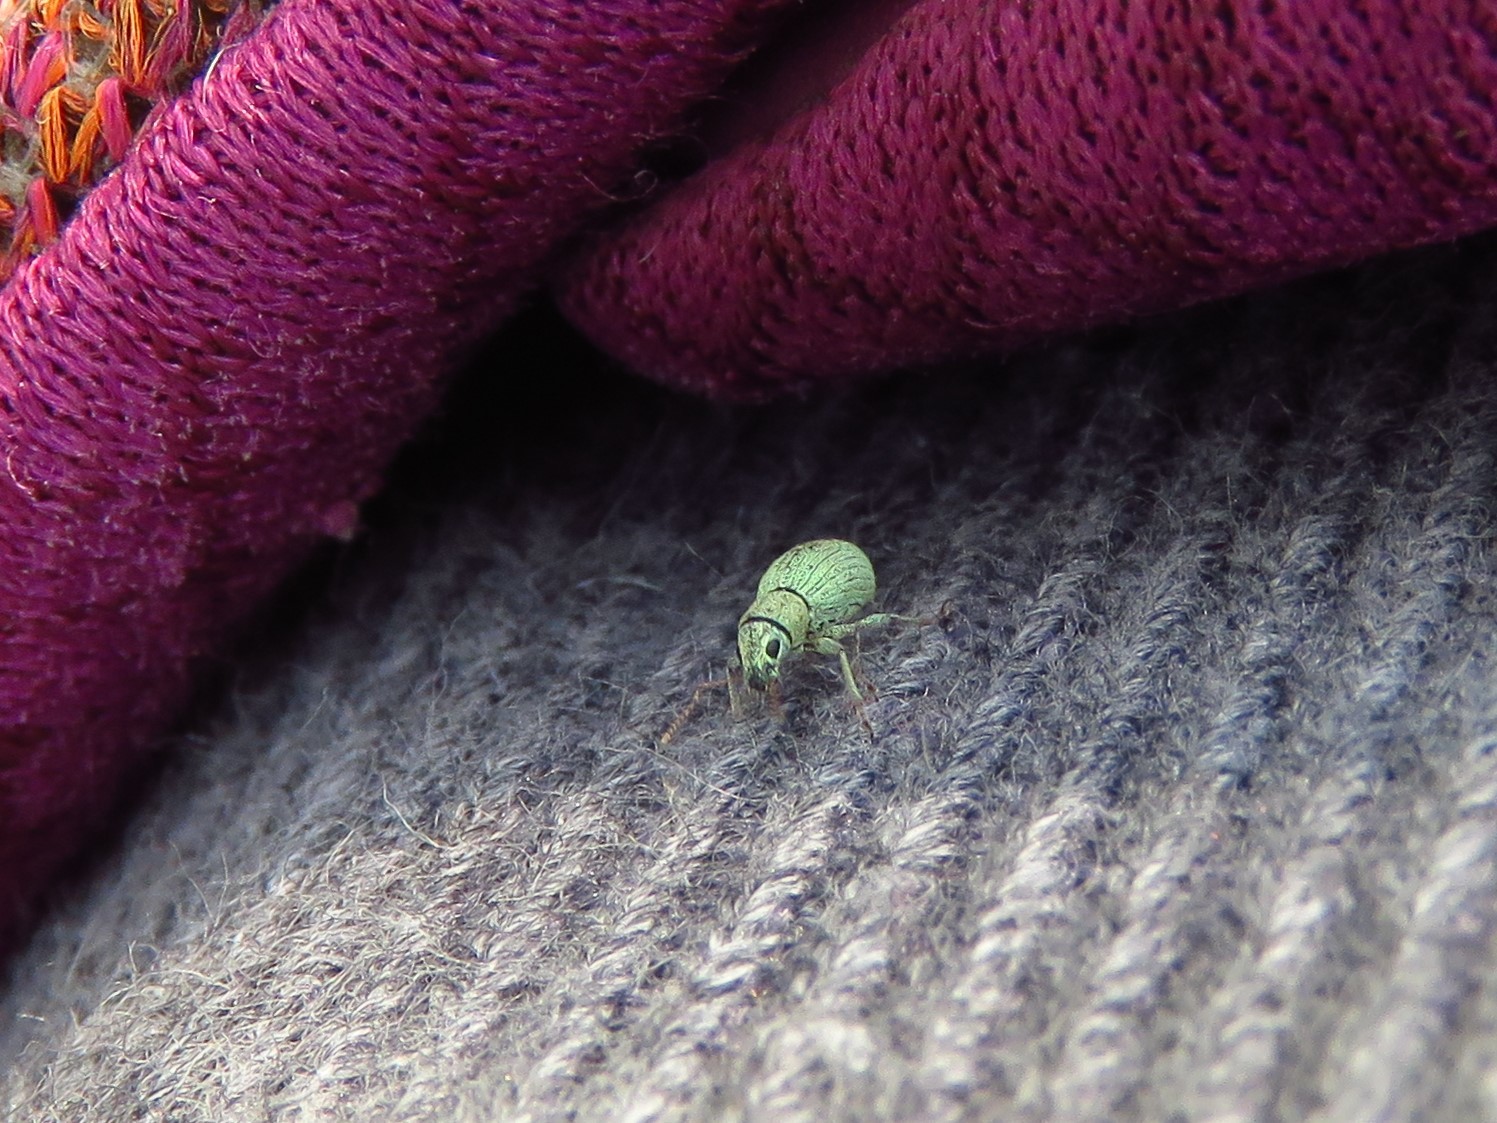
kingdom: Animalia
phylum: Arthropoda
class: Insecta
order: Coleoptera
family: Curculionidae
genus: Mitostylus
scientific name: Mitostylus tenuis
